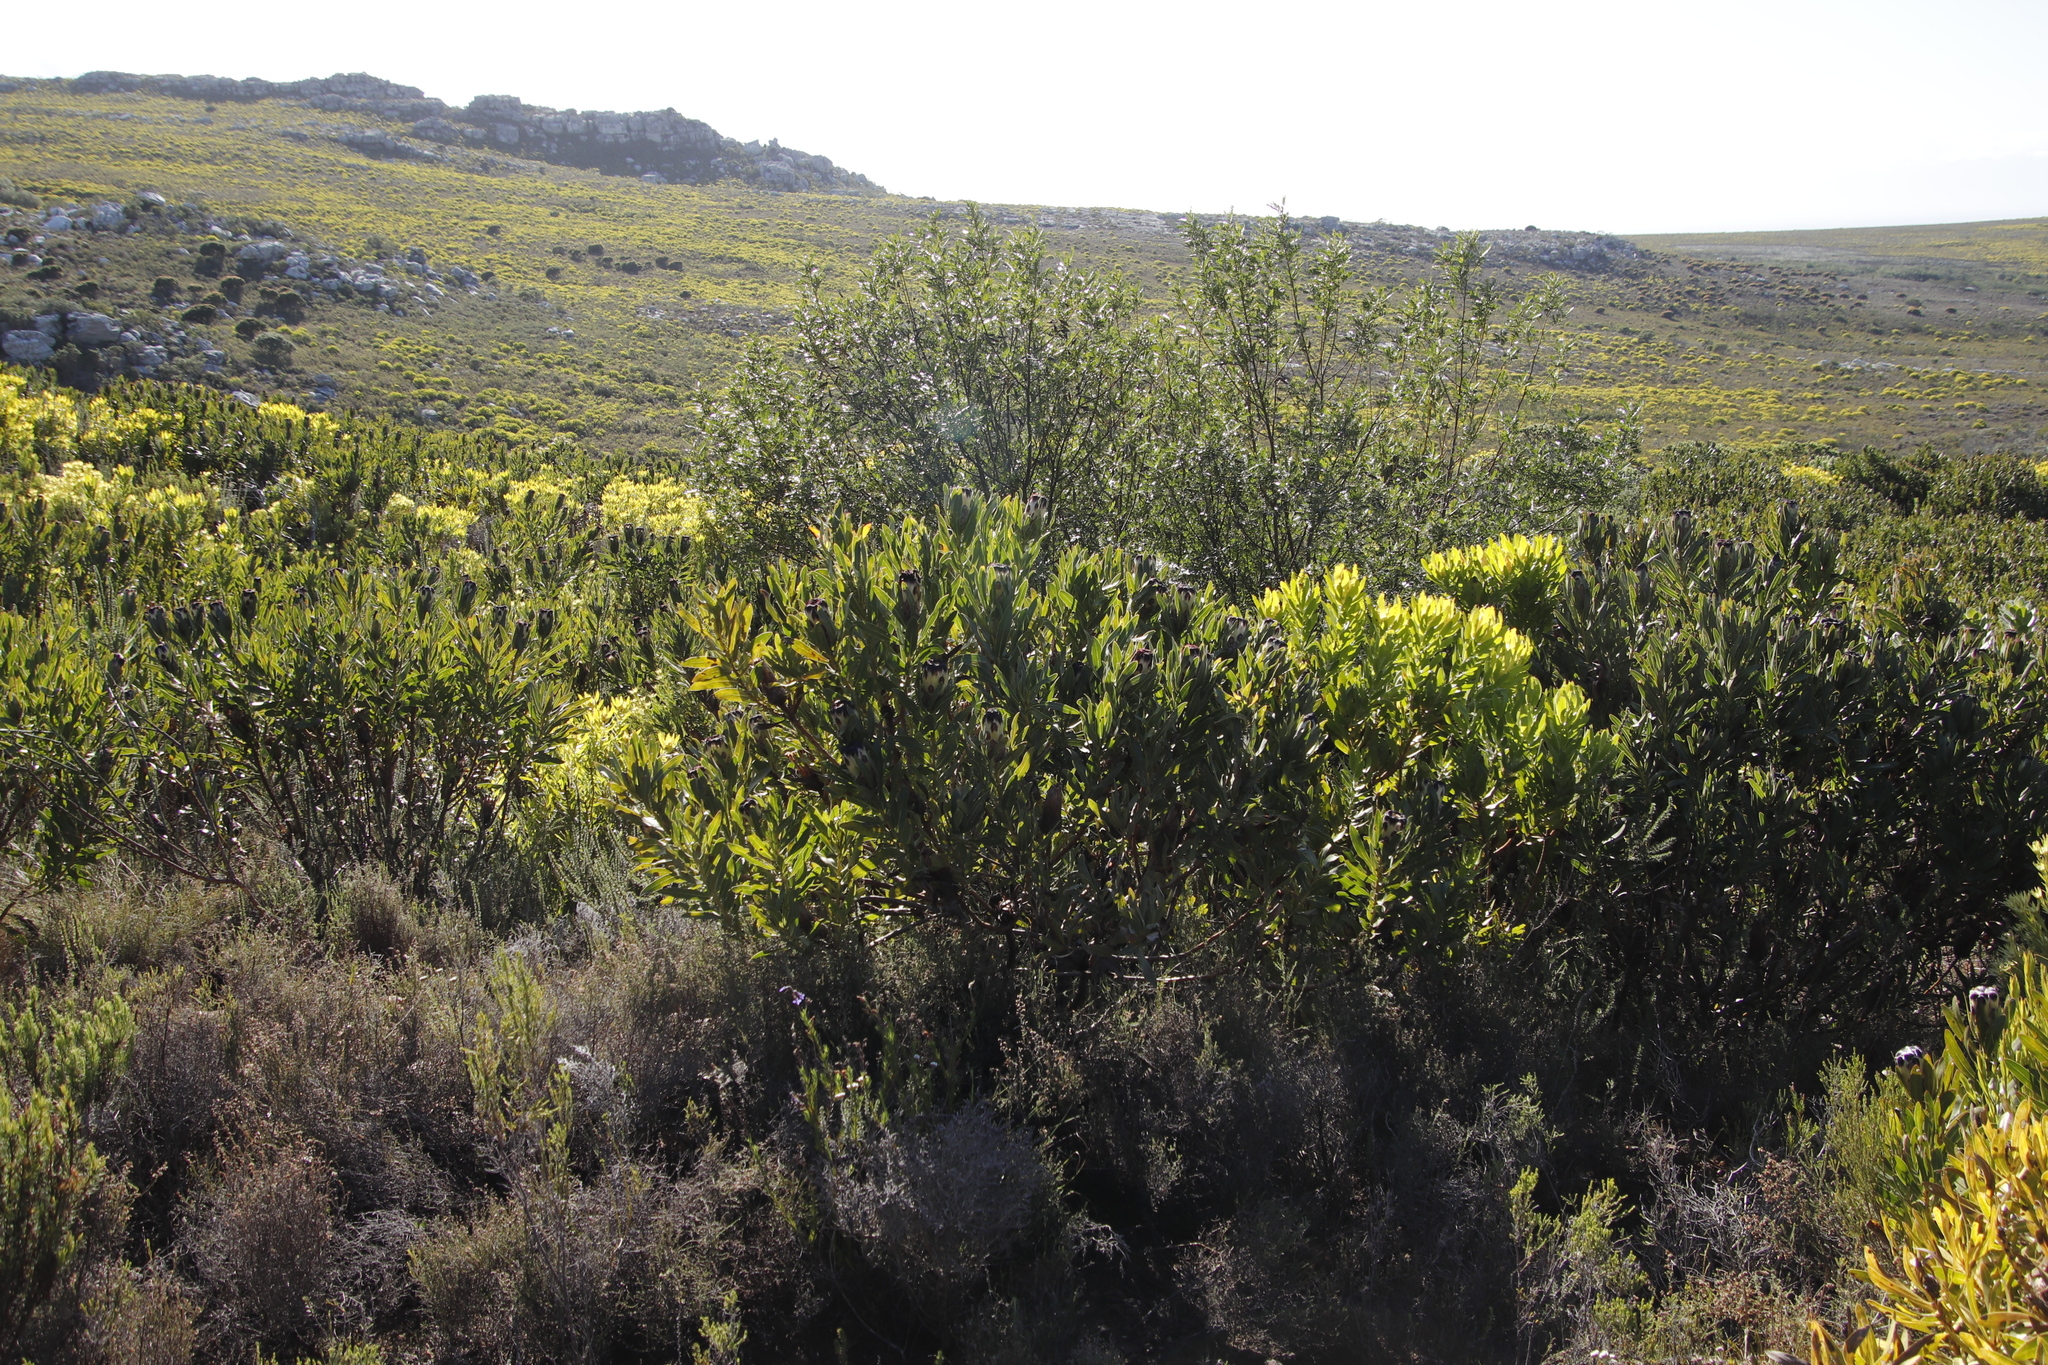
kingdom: Plantae
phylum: Tracheophyta
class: Magnoliopsida
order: Proteales
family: Proteaceae
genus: Protea
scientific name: Protea
